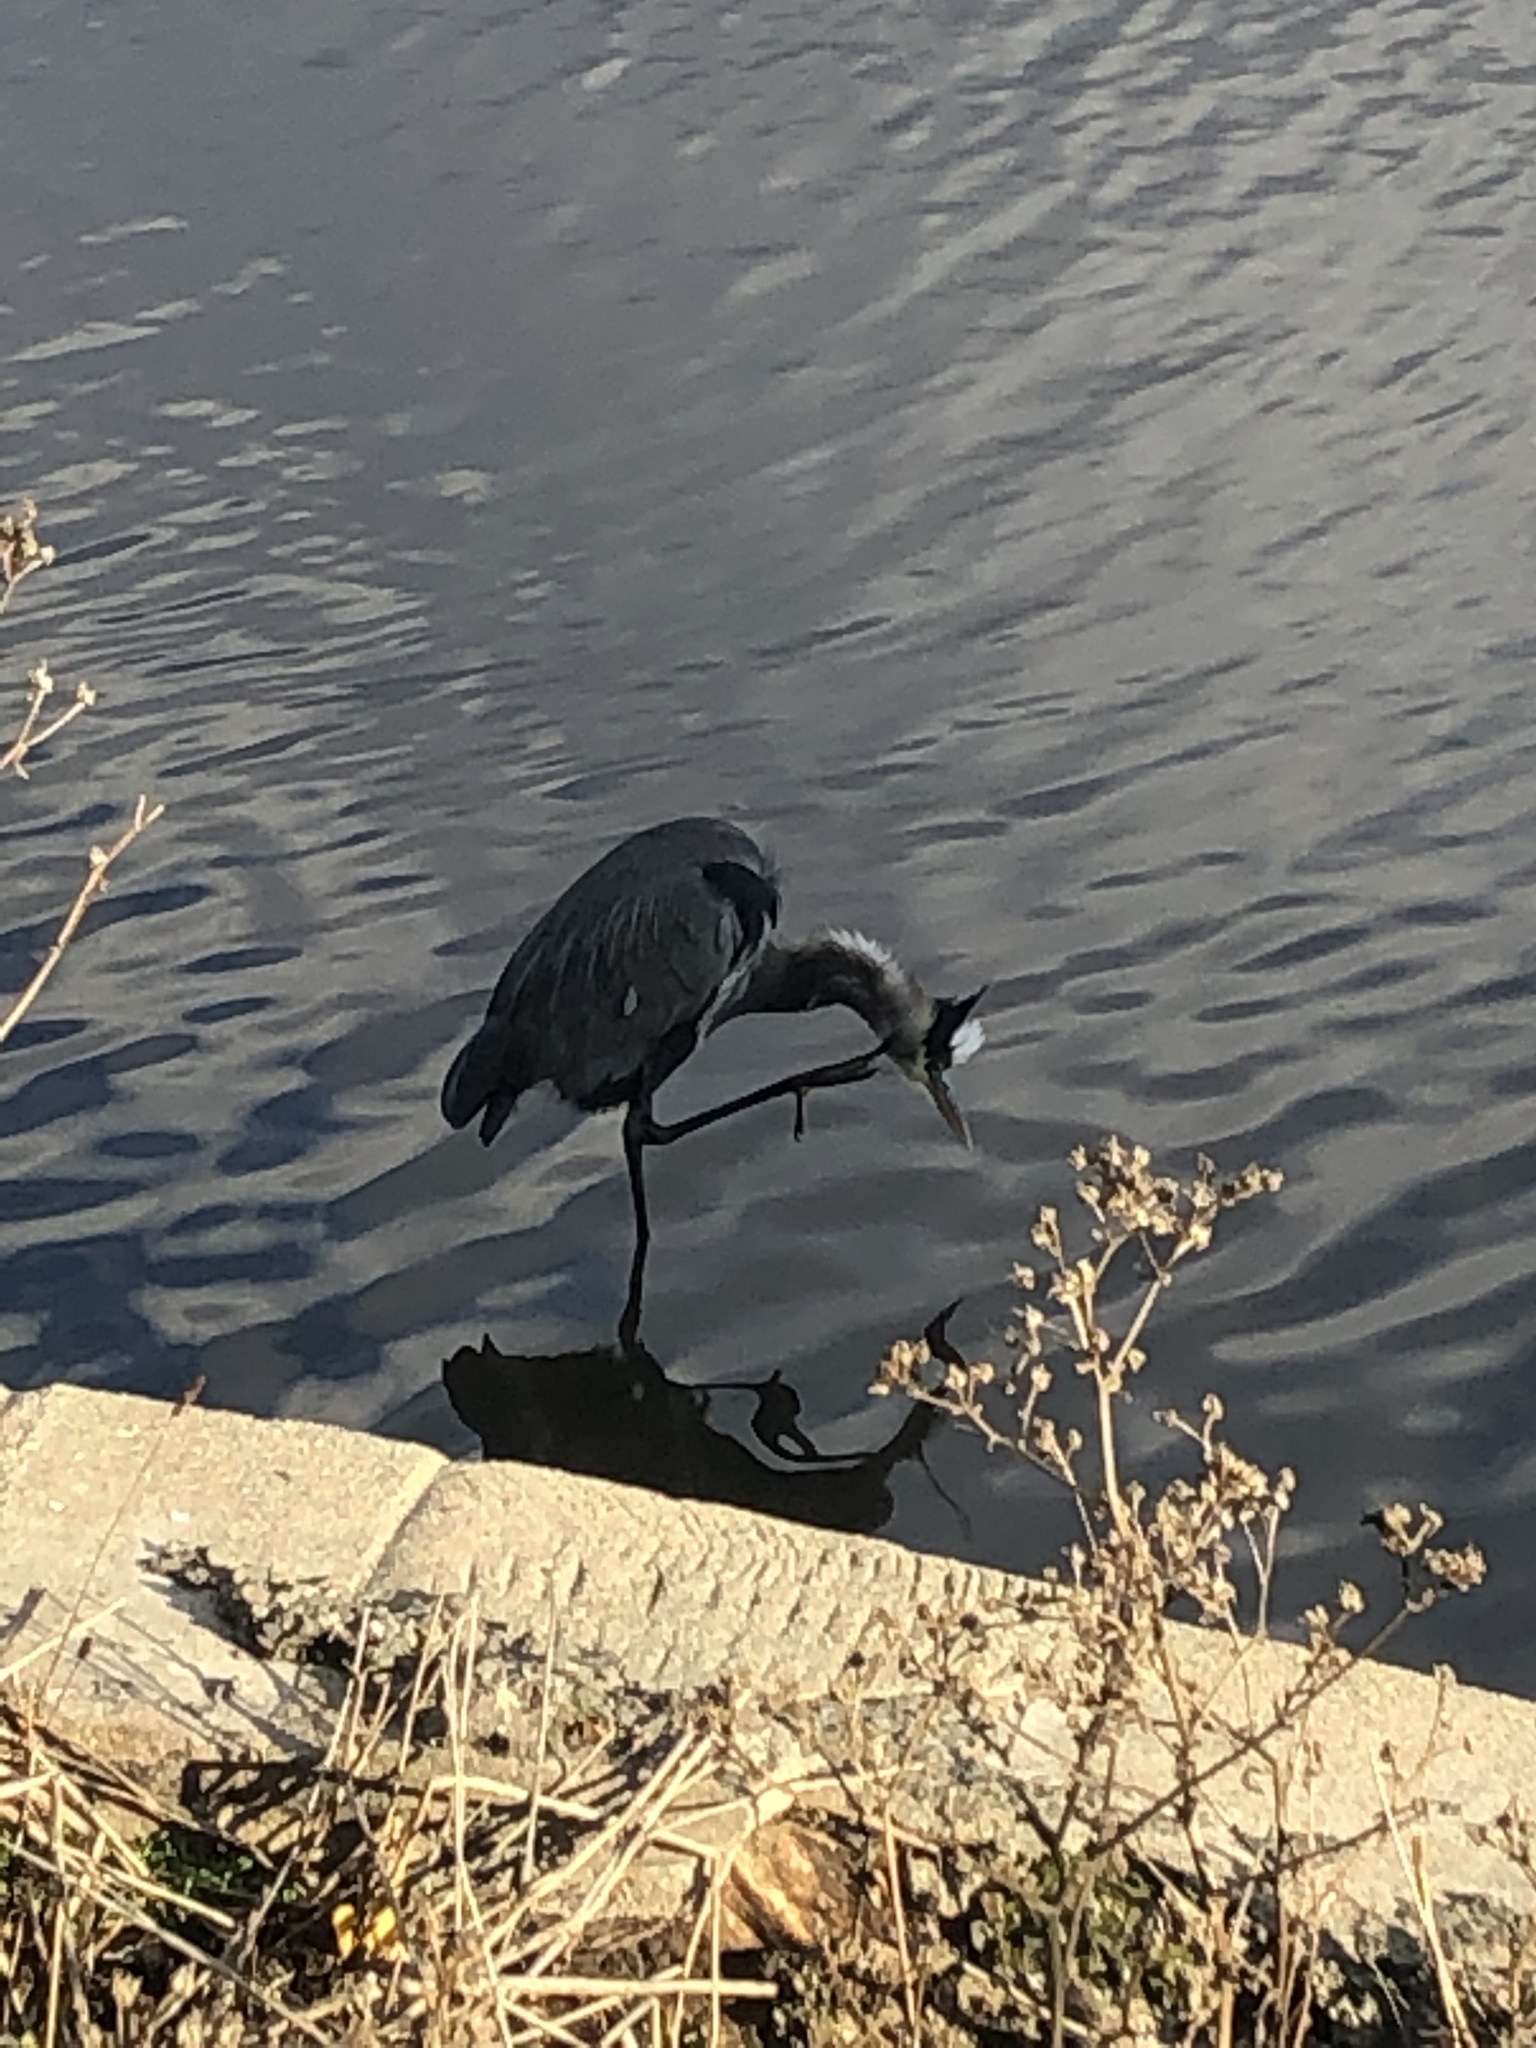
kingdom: Animalia
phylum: Chordata
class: Aves
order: Pelecaniformes
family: Ardeidae
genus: Ardea
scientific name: Ardea herodias
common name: Great blue heron
